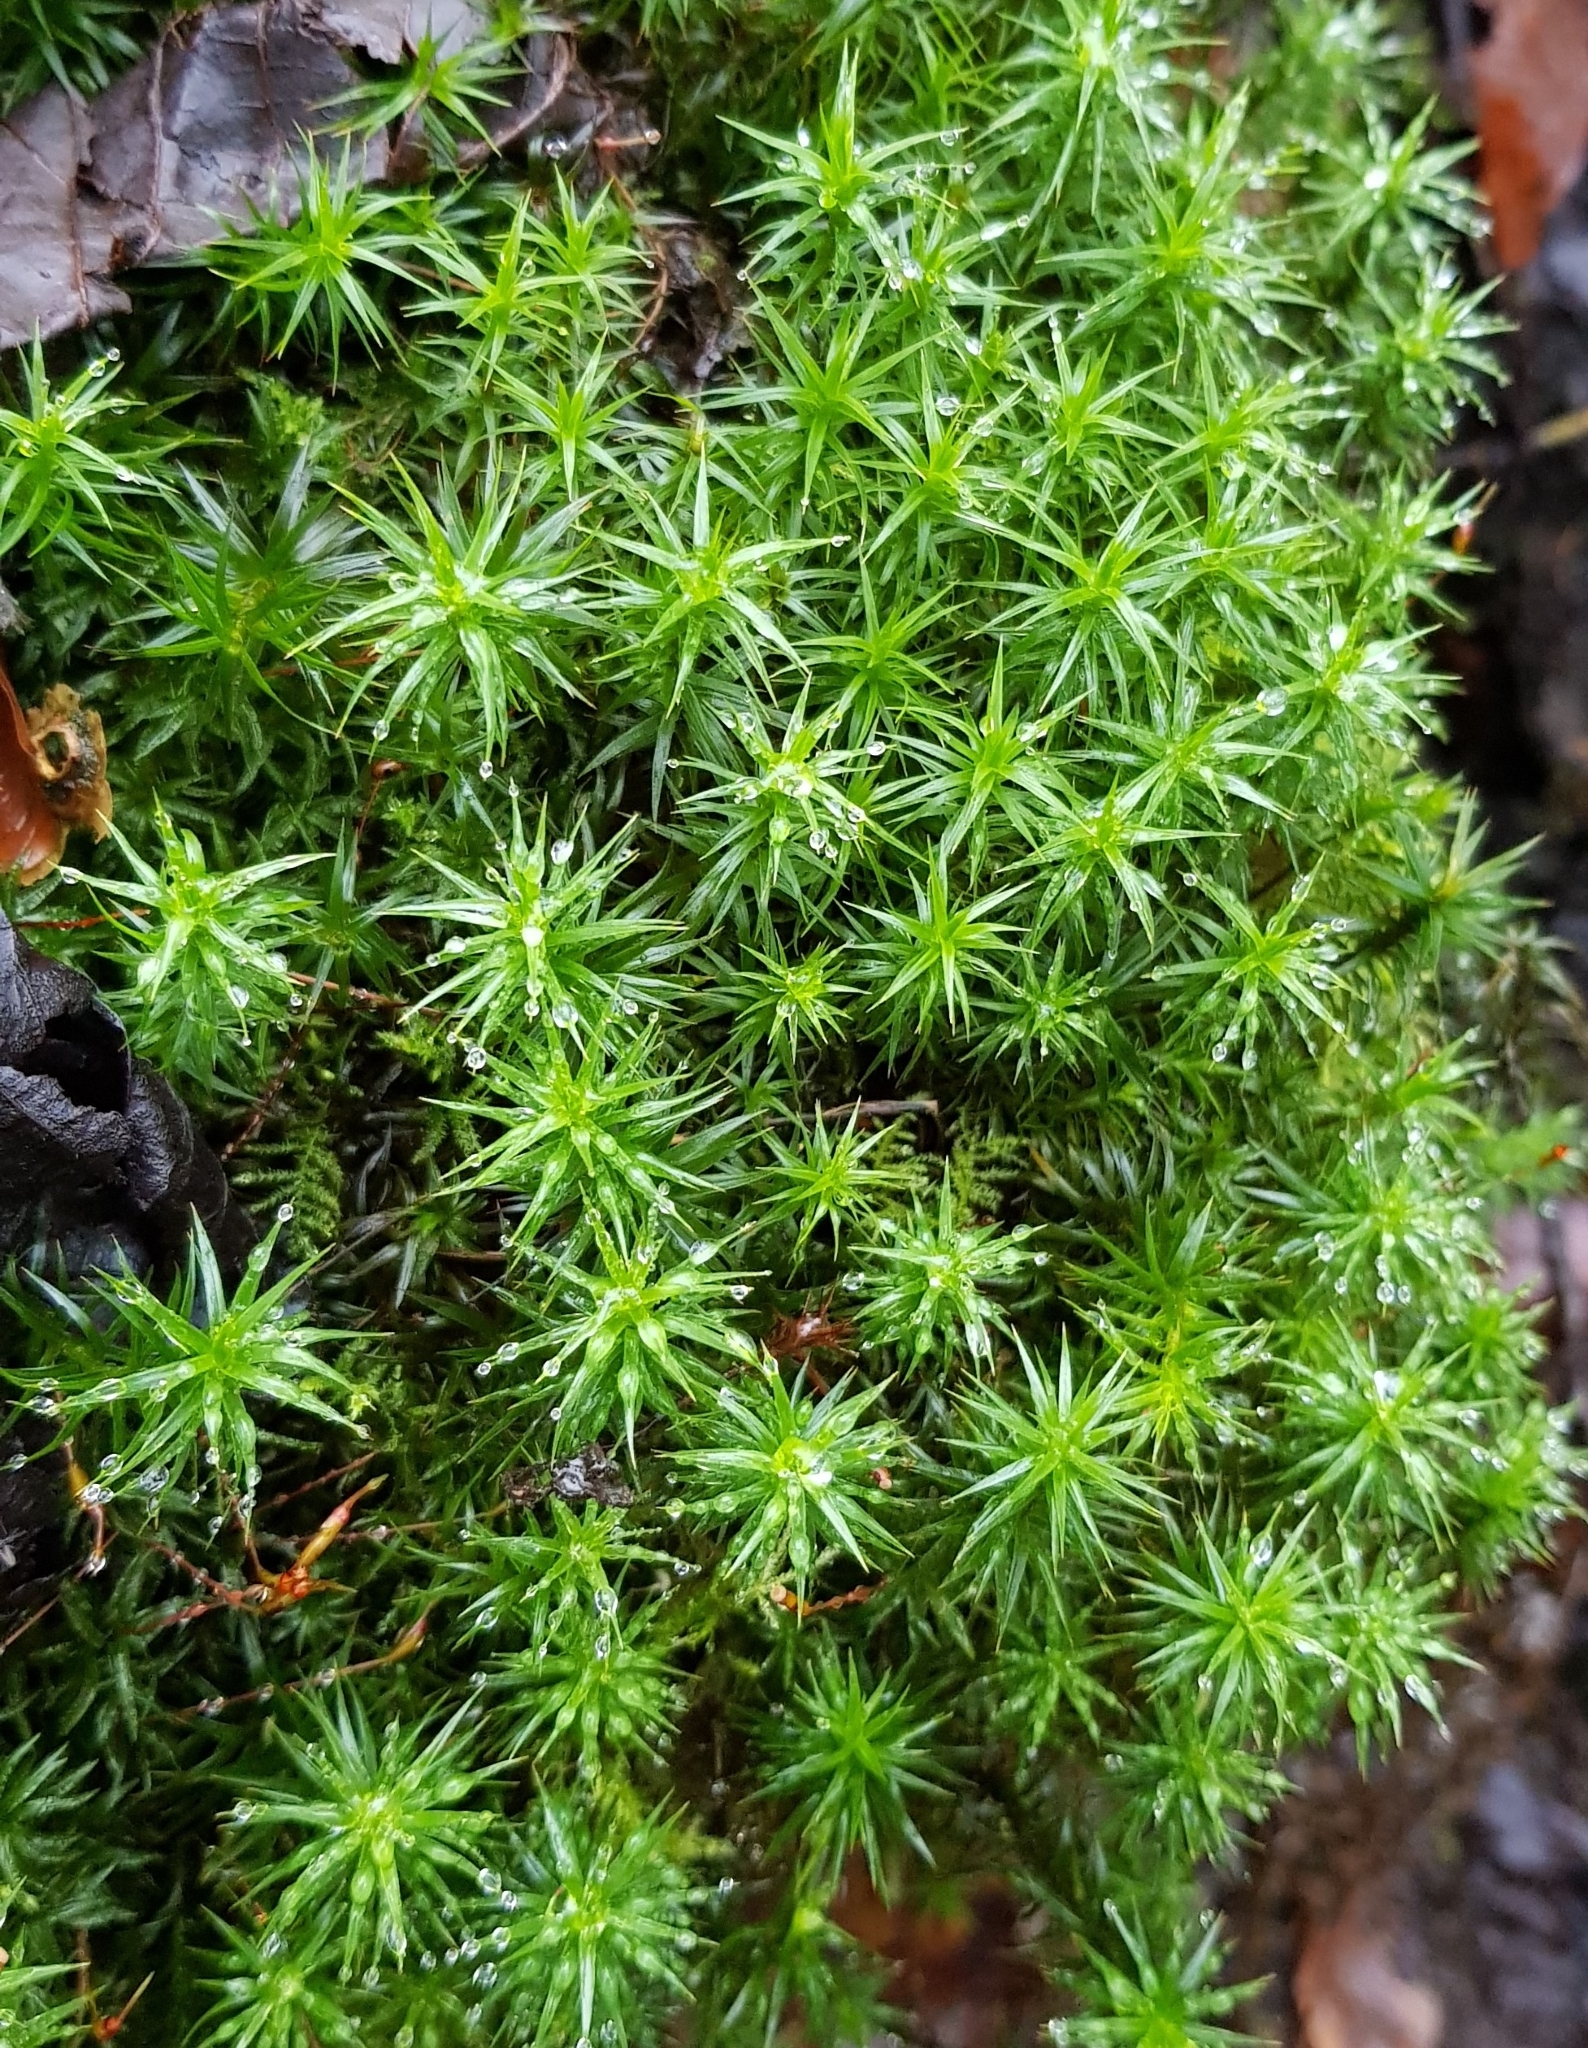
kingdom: Plantae
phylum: Bryophyta
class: Polytrichopsida
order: Polytrichales
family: Polytrichaceae
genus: Polytrichum
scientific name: Polytrichum formosum
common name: Bank haircap moss
